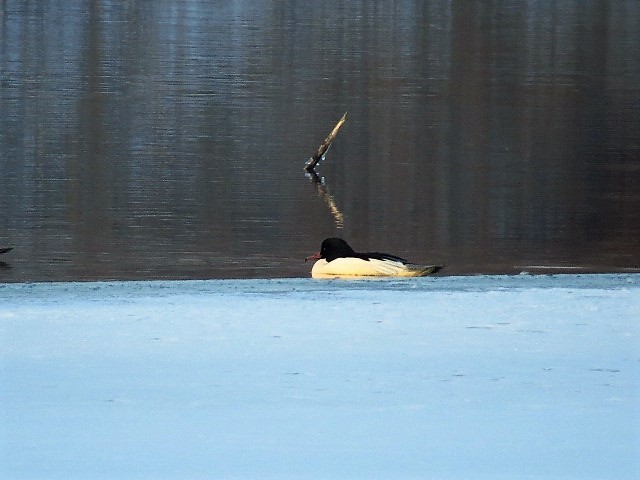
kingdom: Animalia
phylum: Chordata
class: Aves
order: Anseriformes
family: Anatidae
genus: Mergus
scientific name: Mergus merganser
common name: Common merganser
